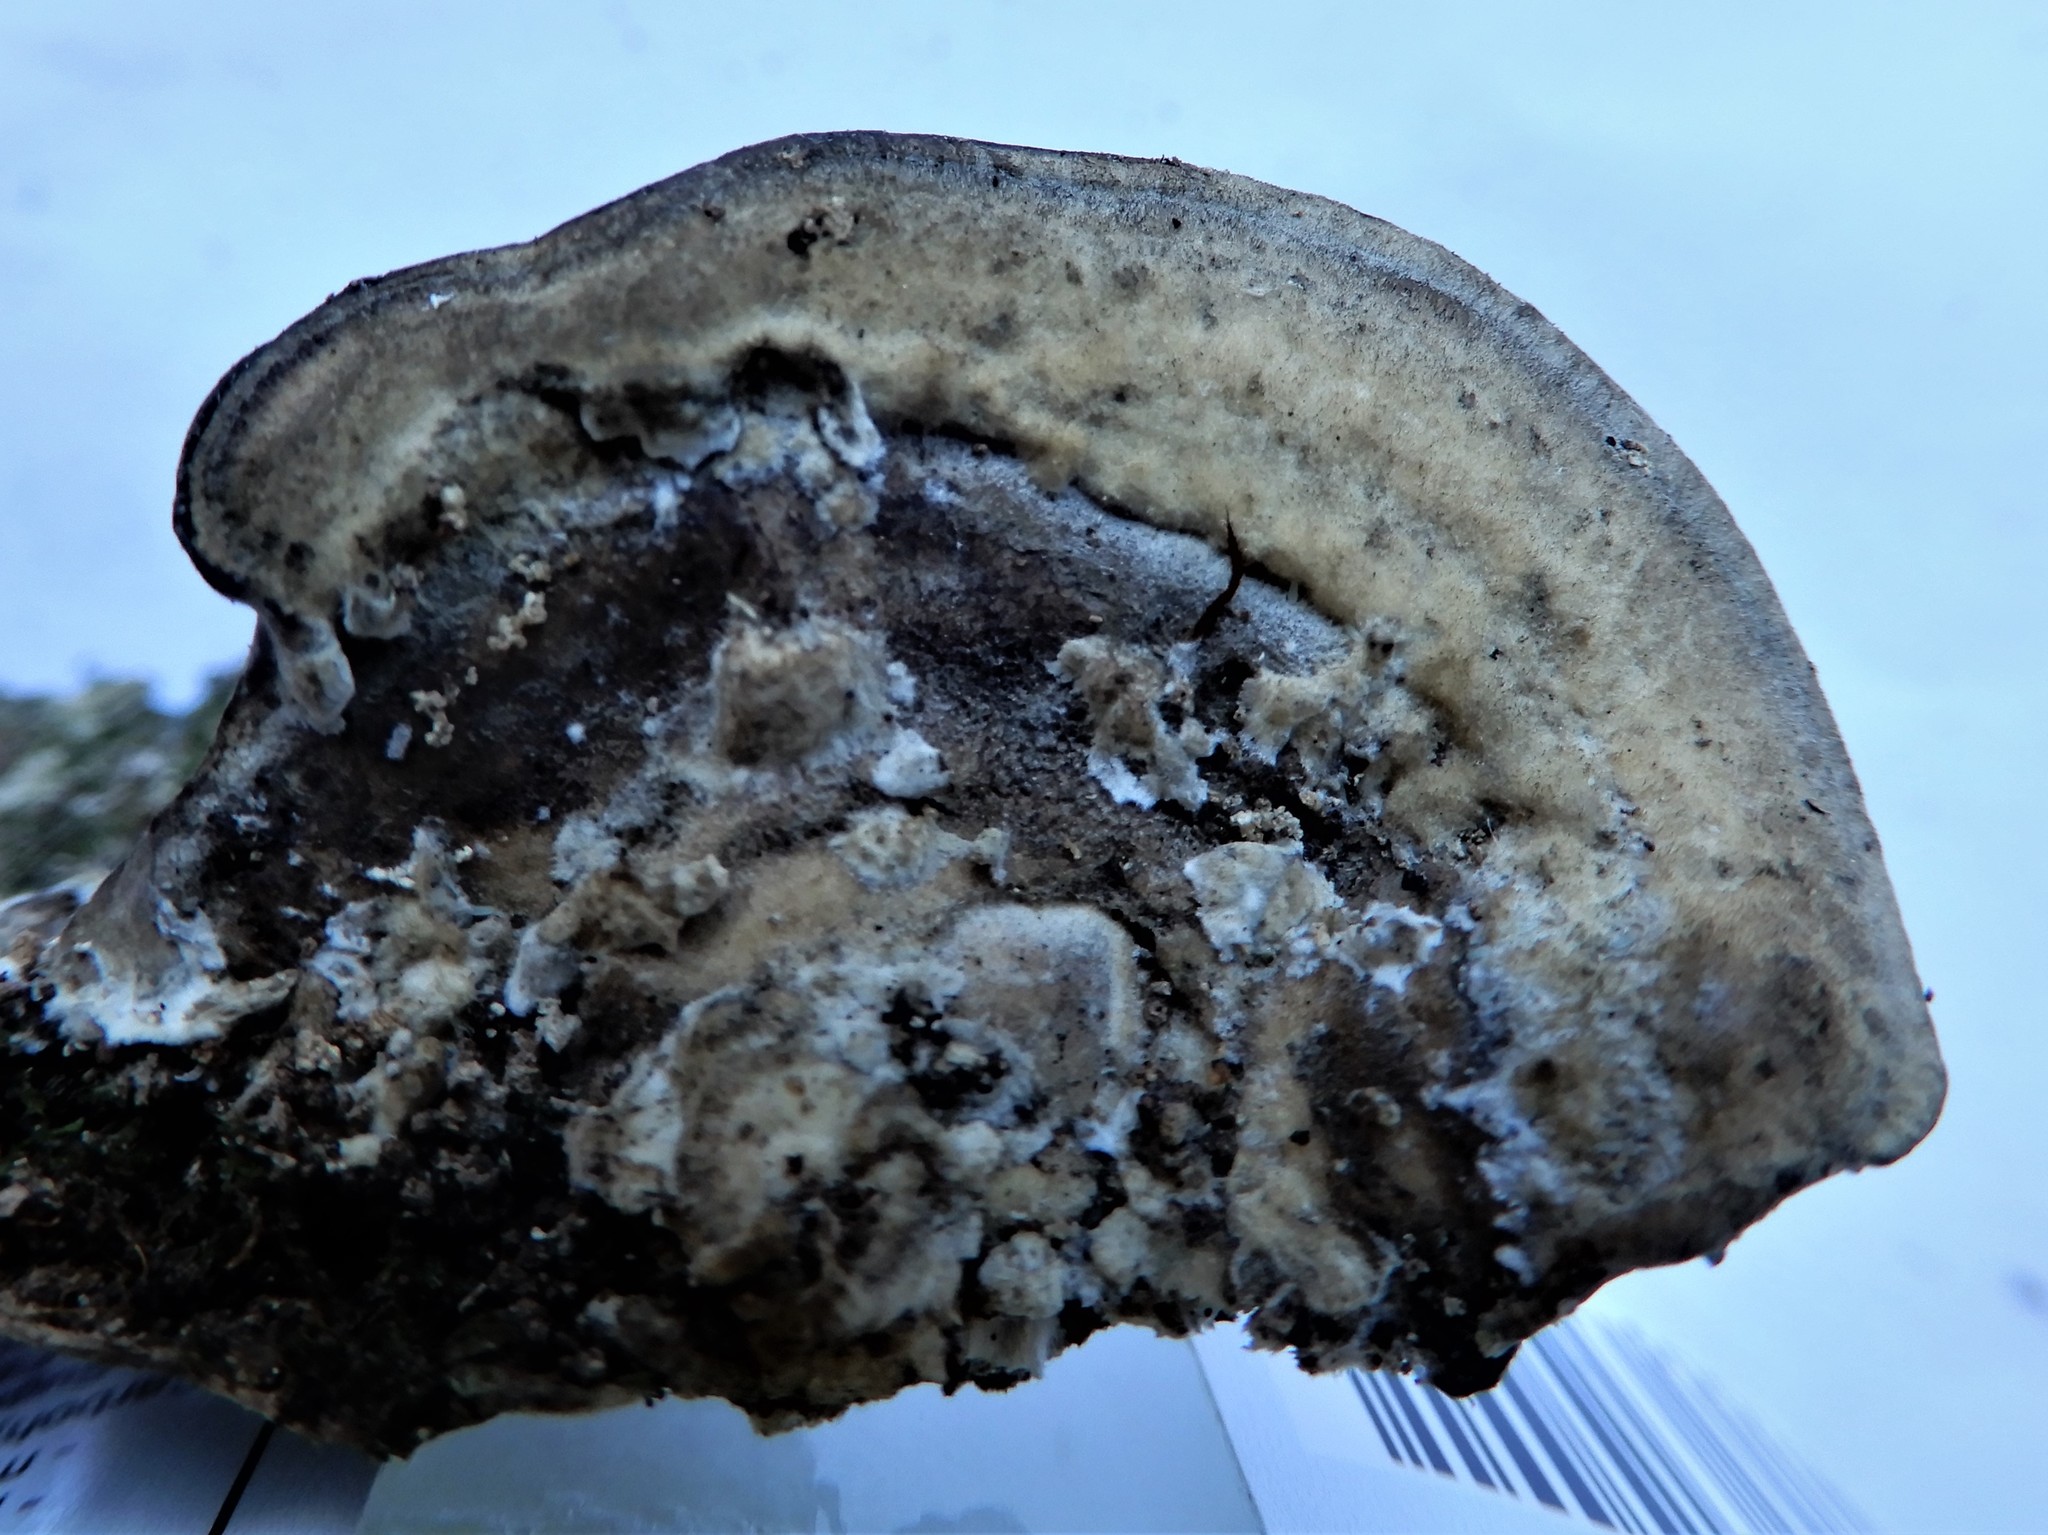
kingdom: Fungi
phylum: Basidiomycota
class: Agaricomycetes
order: Polyporales
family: Phanerochaetaceae
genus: Bjerkandera
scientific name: Bjerkandera adusta
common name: Smoky bracket
